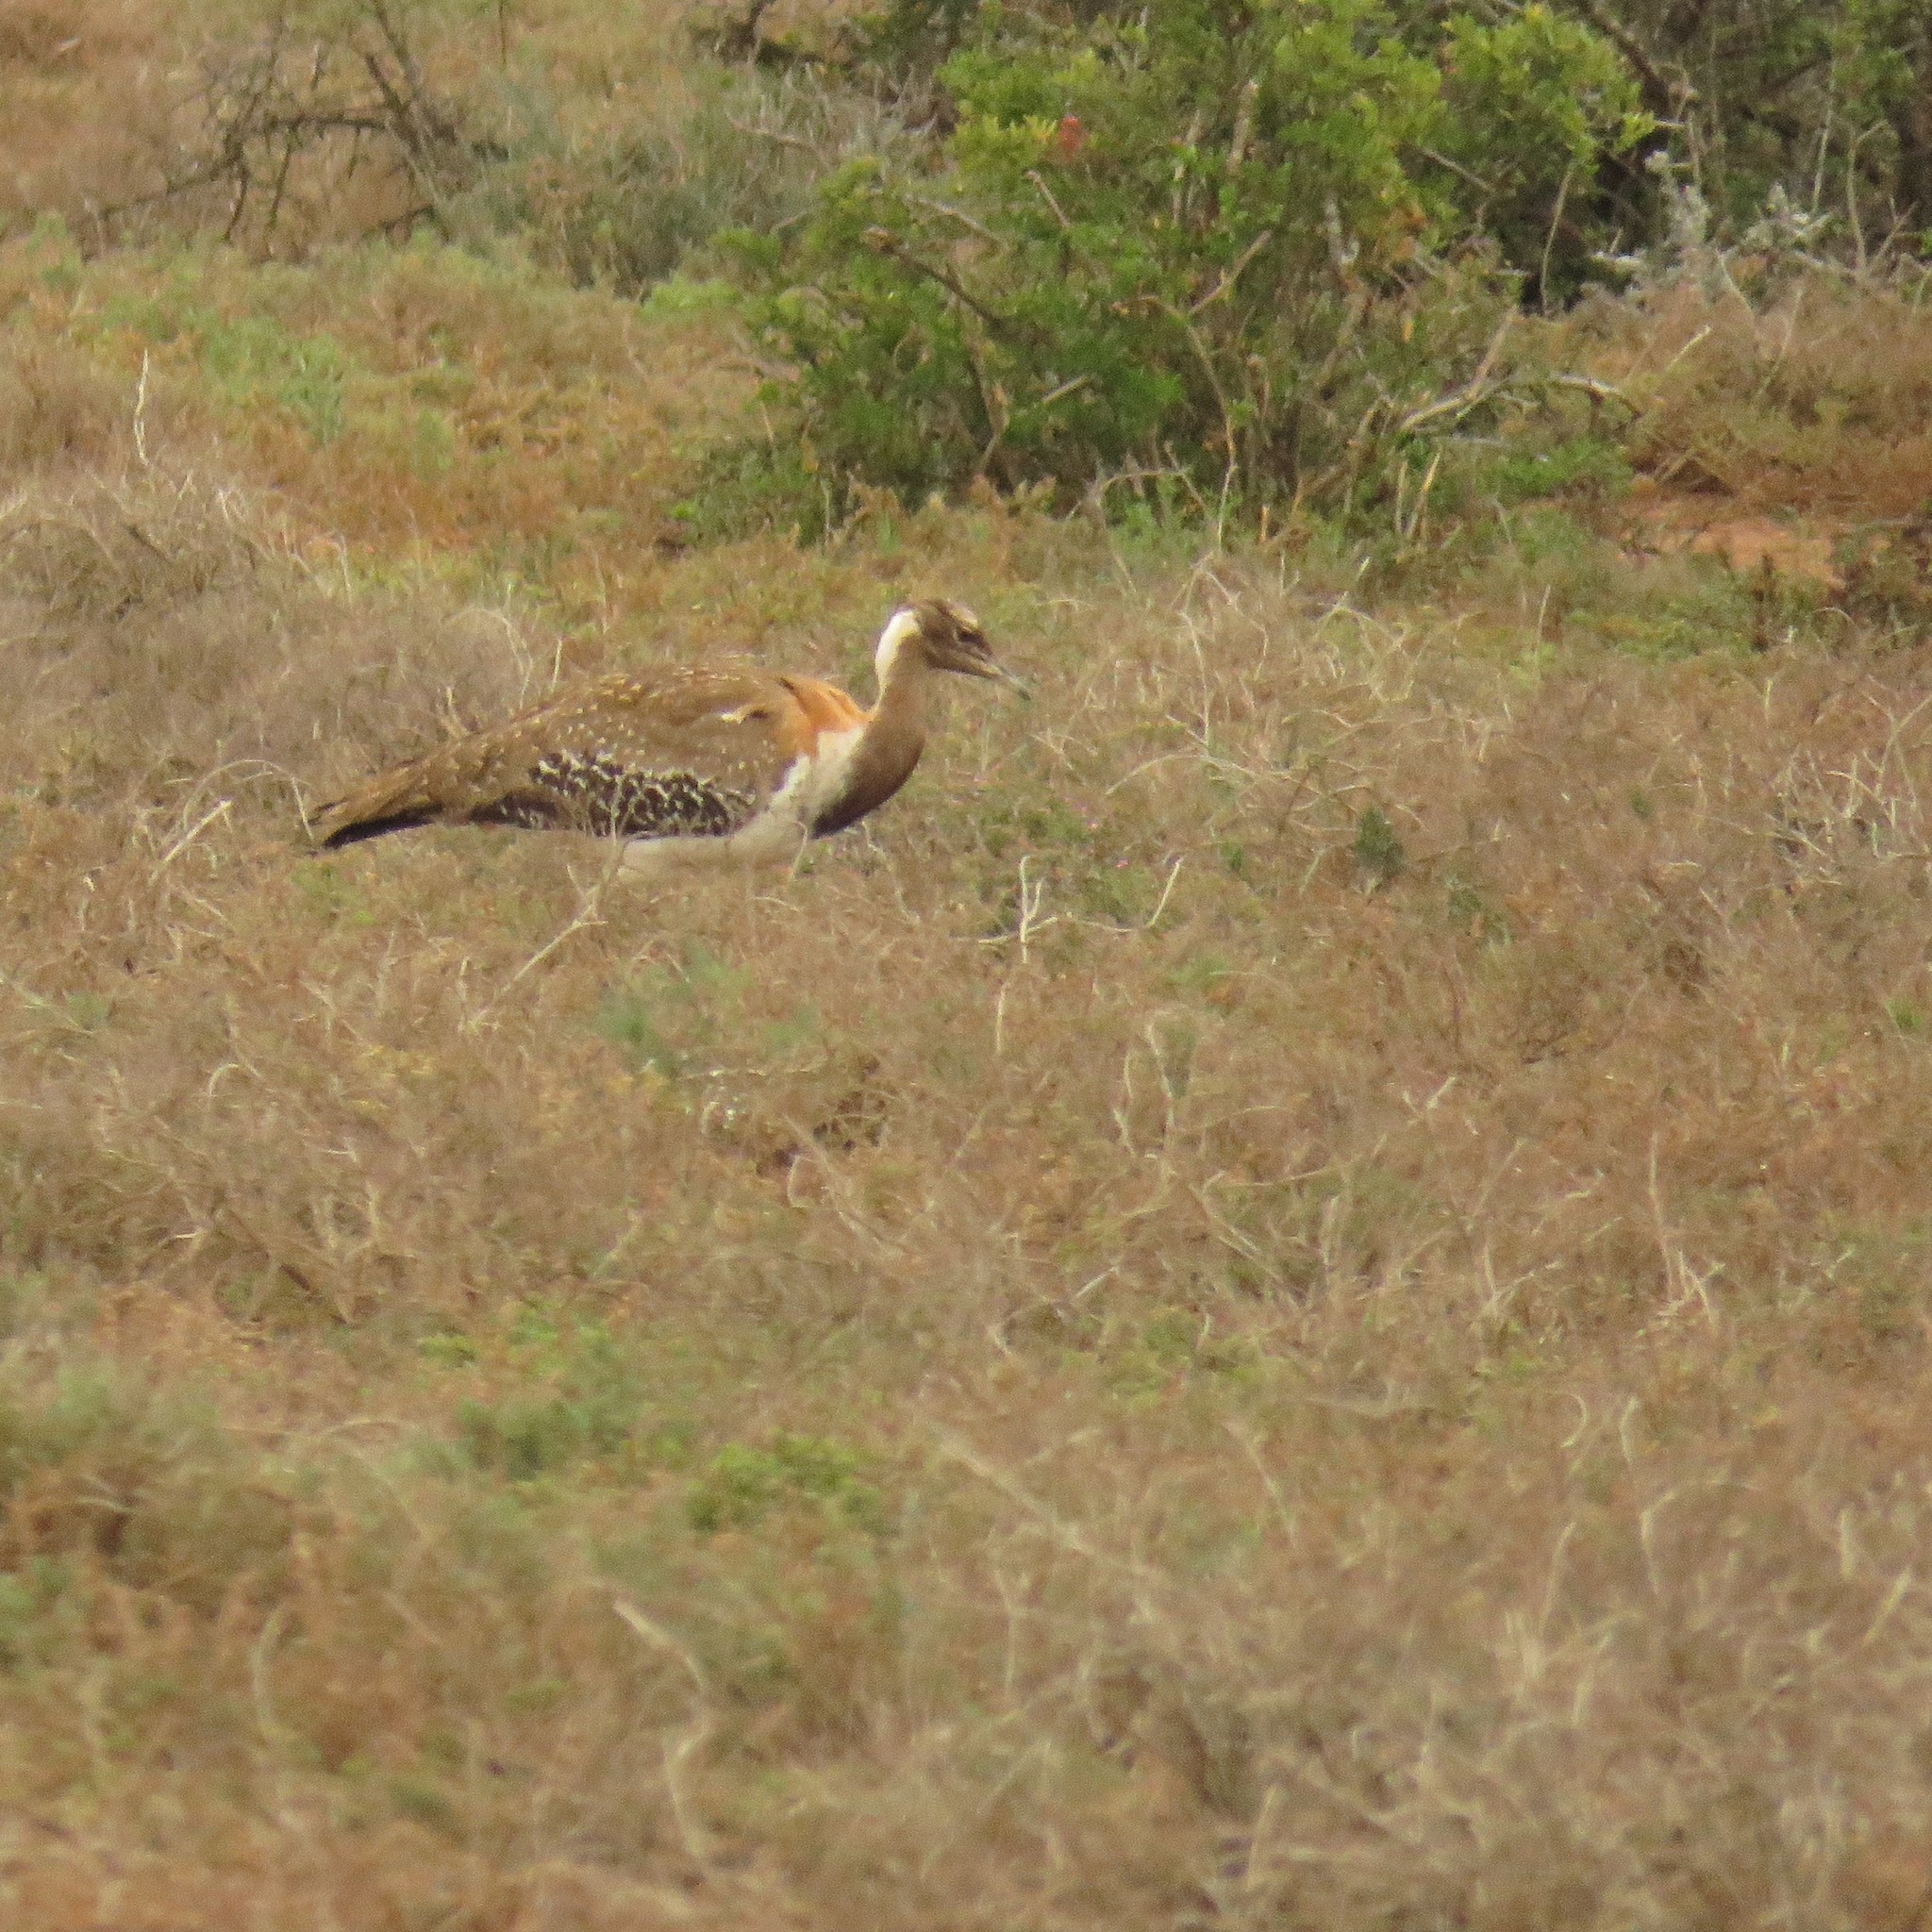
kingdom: Animalia
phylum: Chordata
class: Aves
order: Otidiformes
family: Otididae
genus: Neotis
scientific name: Neotis ludwigii
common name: Ludwig's bustard
